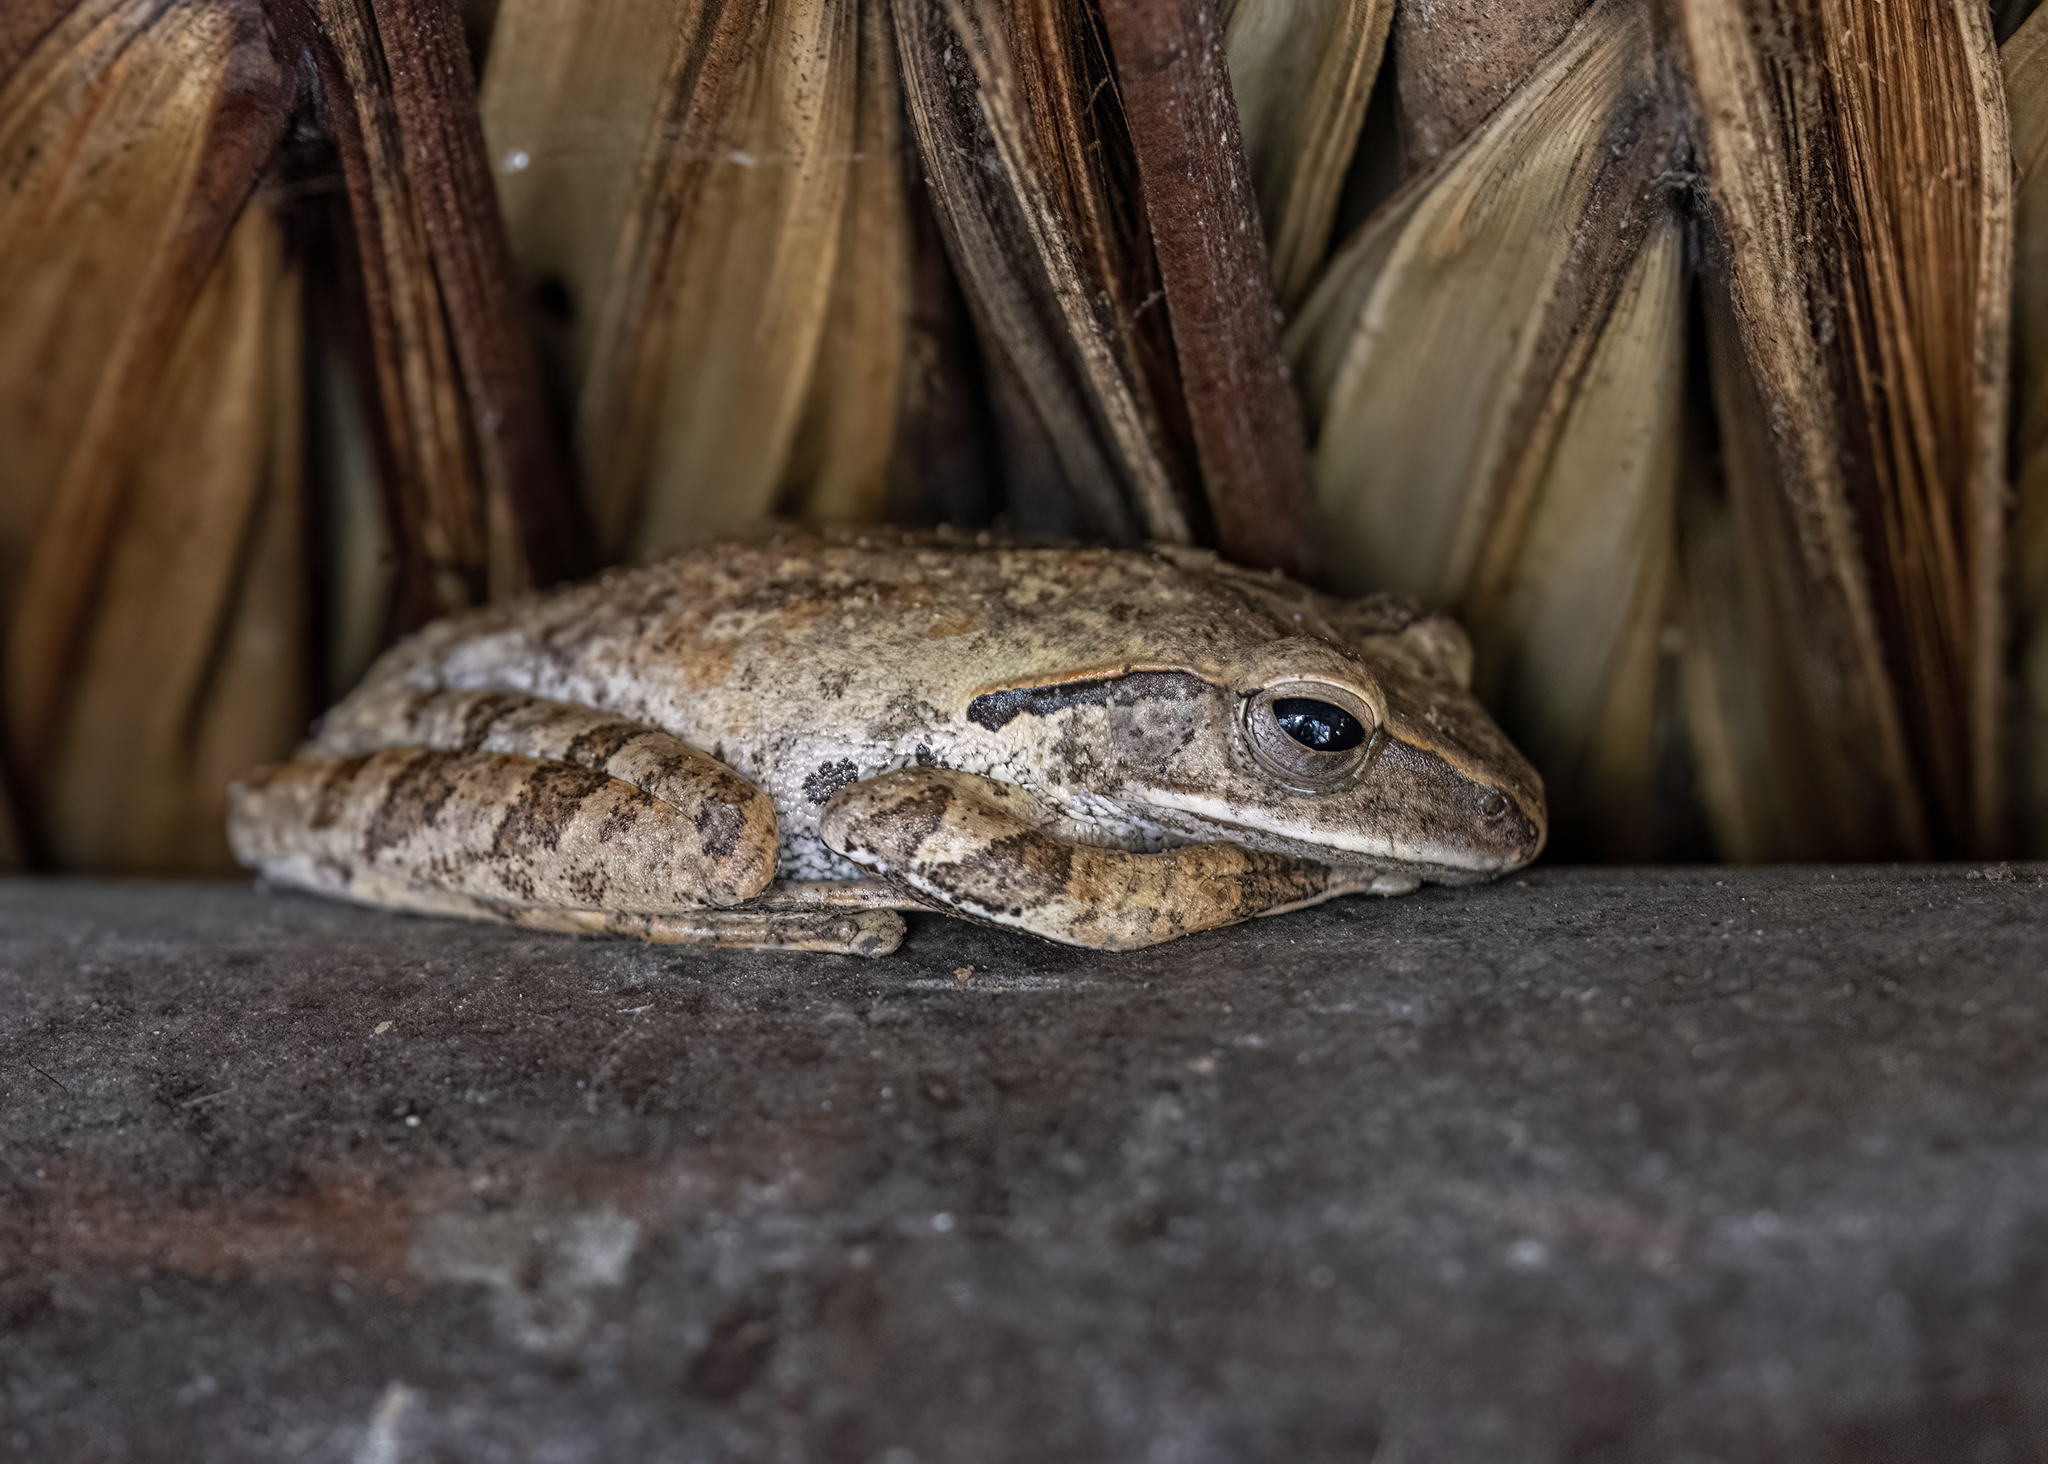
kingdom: Animalia
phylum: Chordata
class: Amphibia
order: Anura
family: Rhacophoridae
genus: Polypedates
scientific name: Polypedates megacephalus
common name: Hong kong whipping frog
